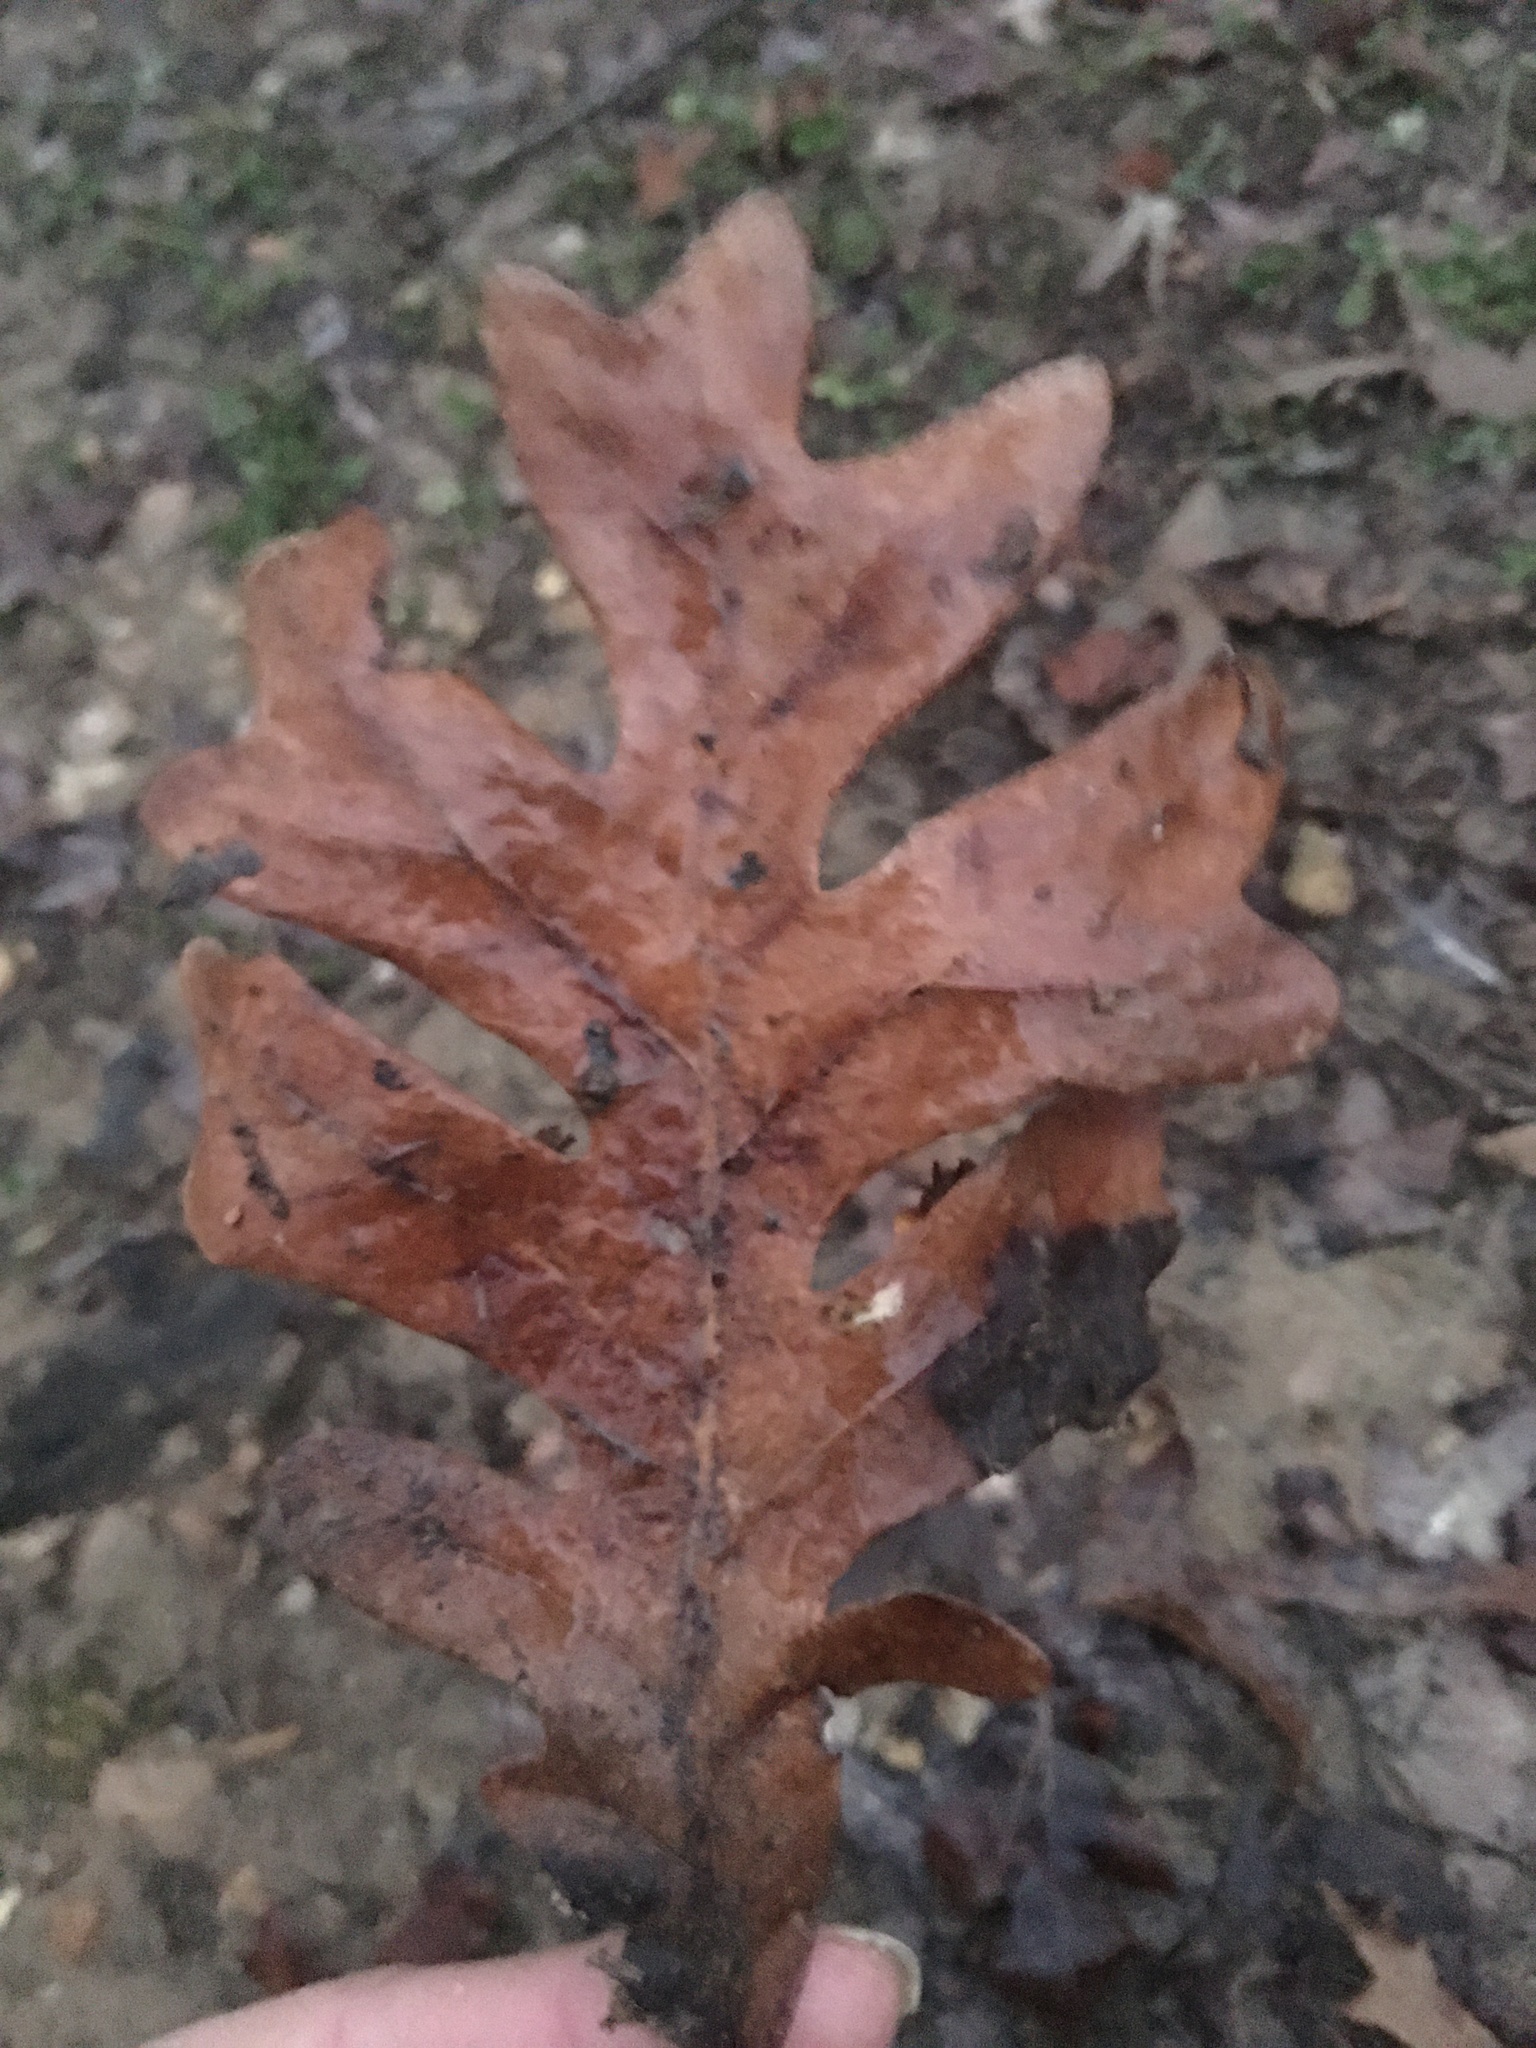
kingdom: Plantae
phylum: Tracheophyta
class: Magnoliopsida
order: Fagales
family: Fagaceae
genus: Quercus
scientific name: Quercus alba
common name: White oak
